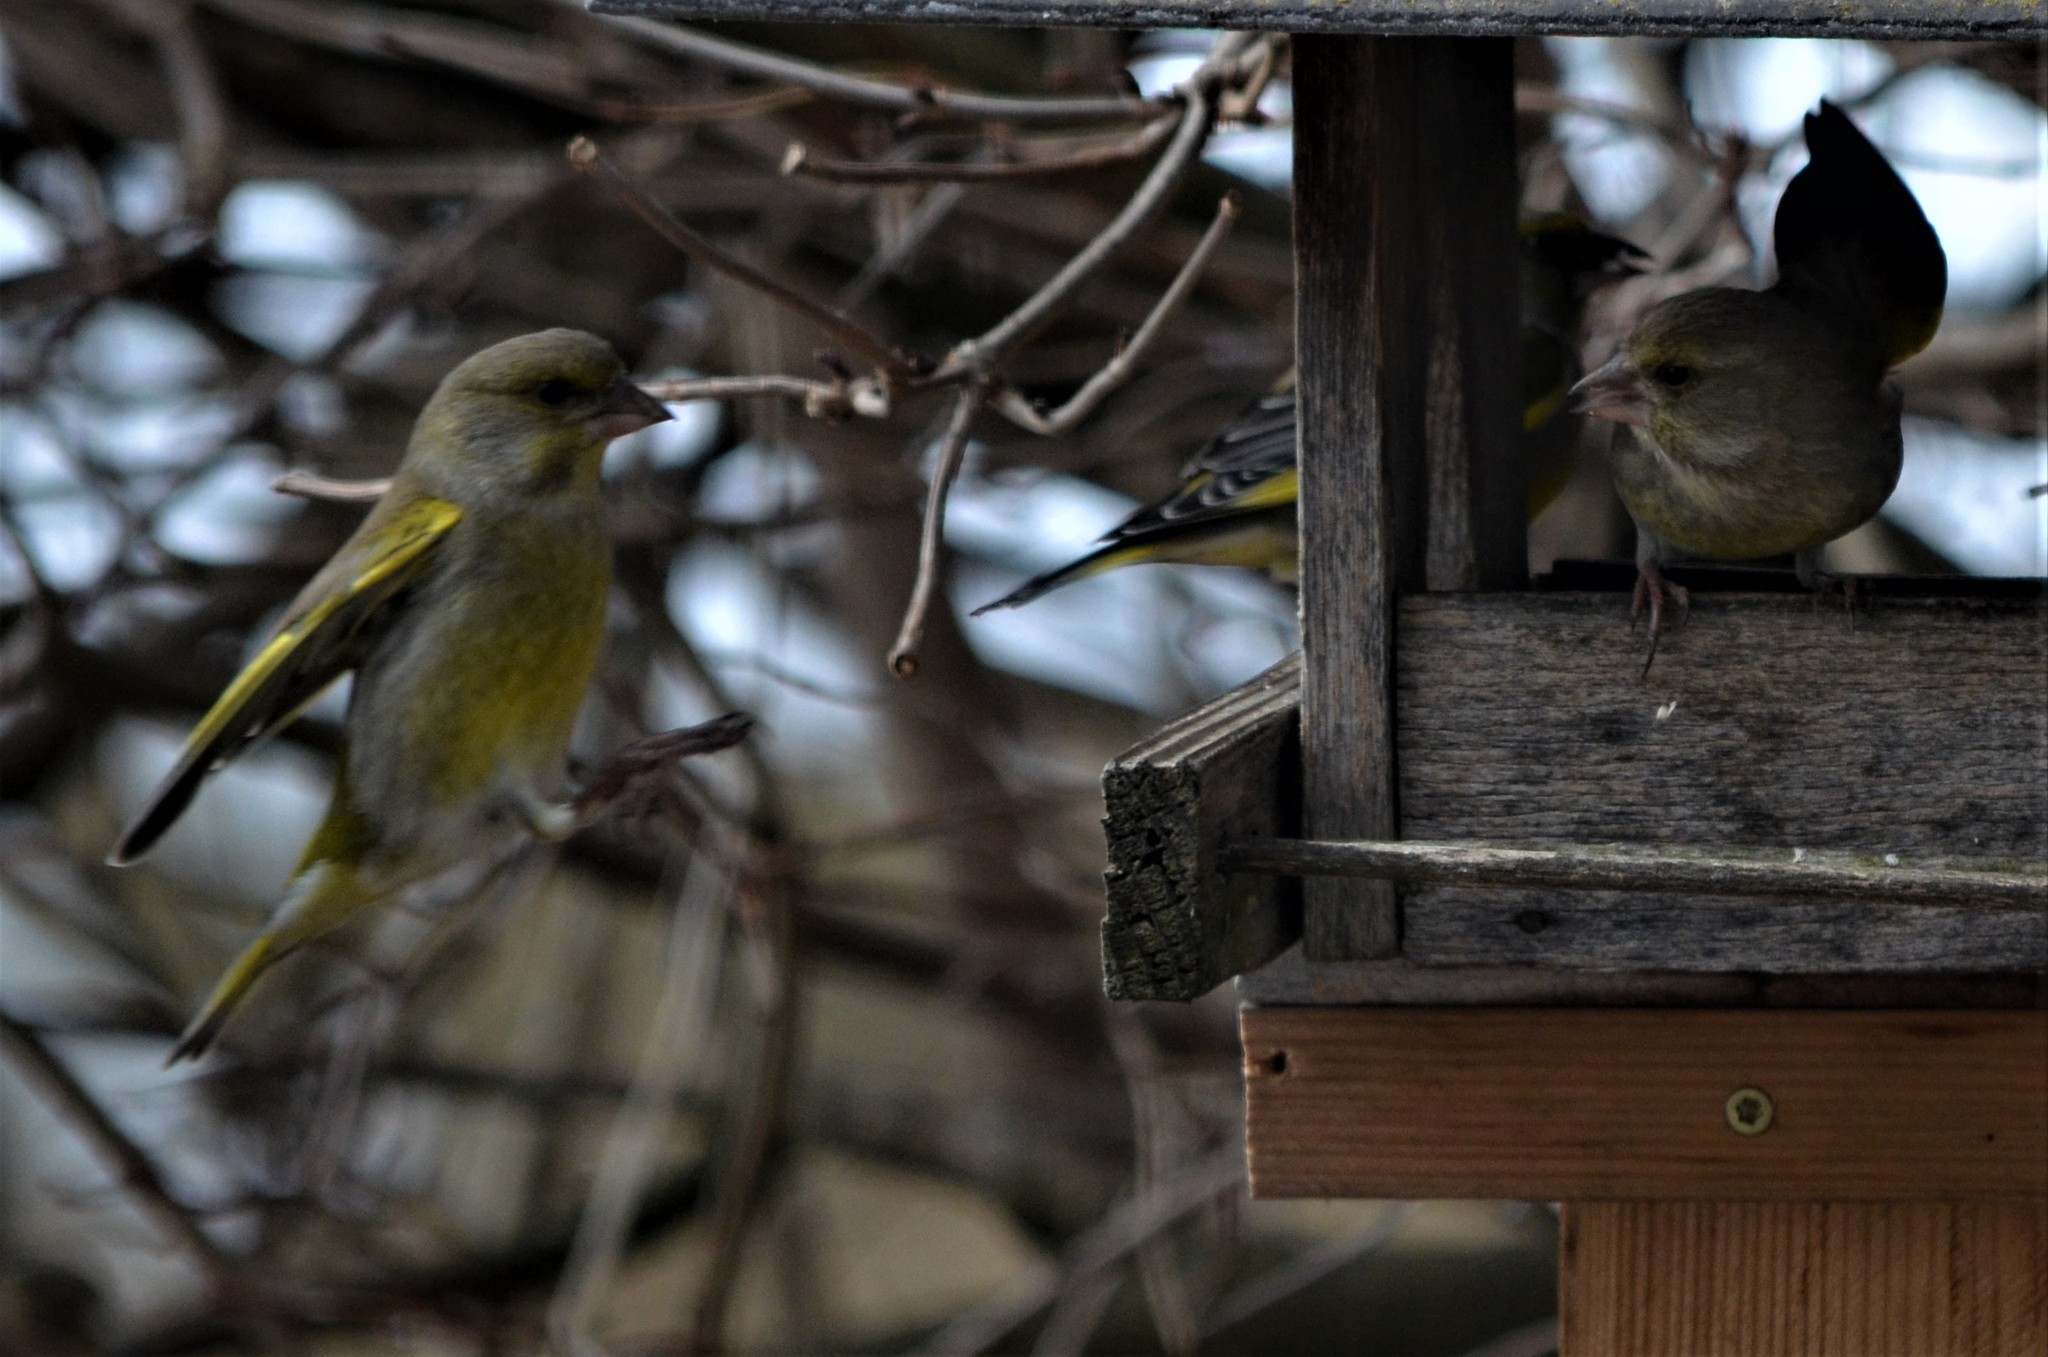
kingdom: Plantae
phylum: Tracheophyta
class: Liliopsida
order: Poales
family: Poaceae
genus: Chloris
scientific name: Chloris chloris
